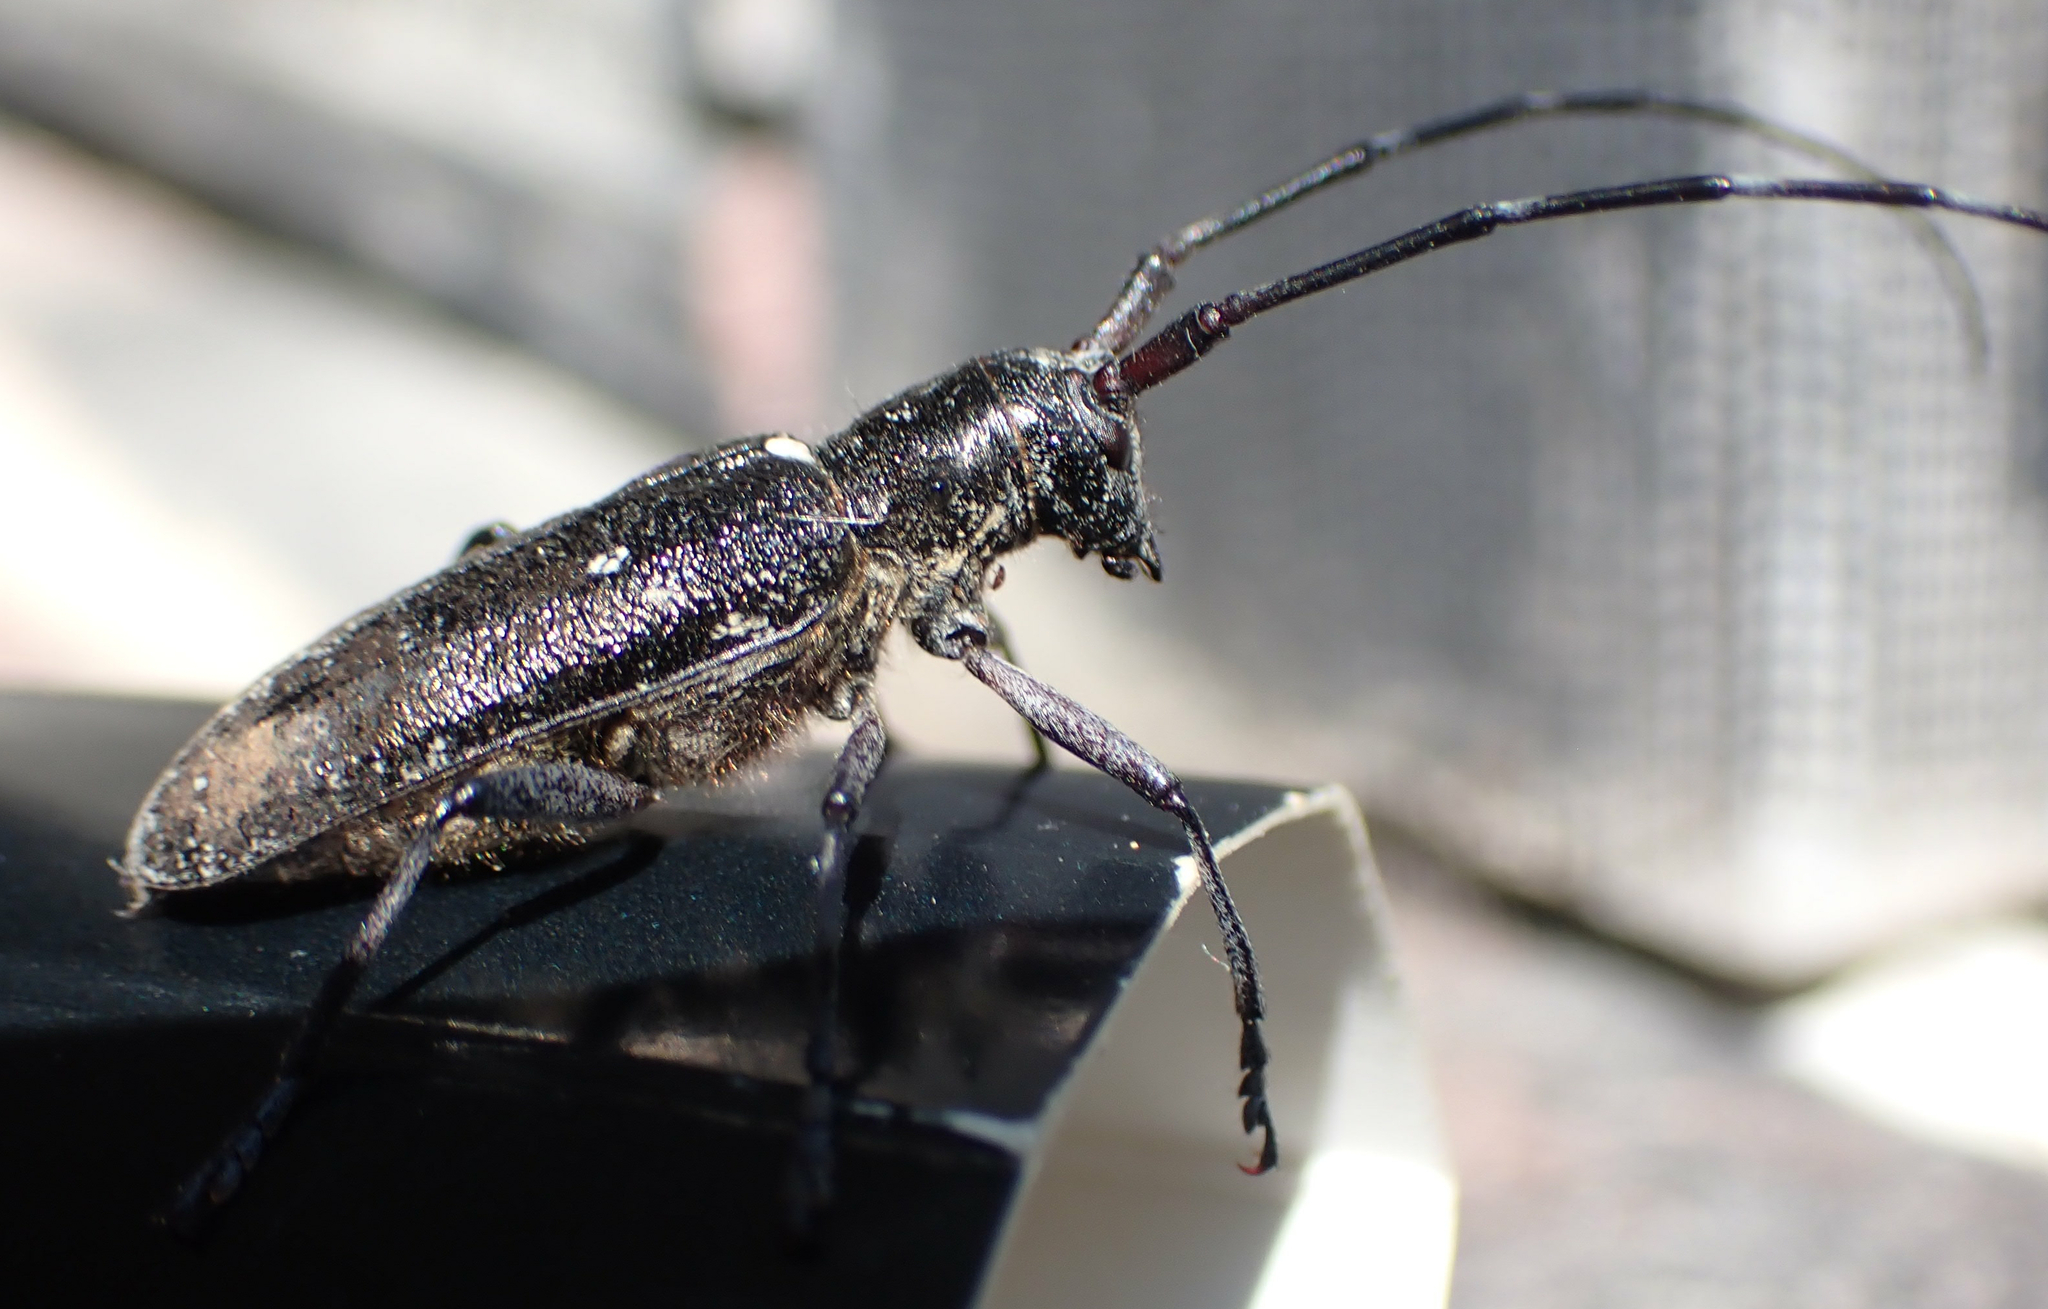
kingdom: Animalia
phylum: Arthropoda
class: Insecta
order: Coleoptera
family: Cerambycidae
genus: Monochamus
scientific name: Monochamus scutellatus
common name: White-spotted sawyer beetle
